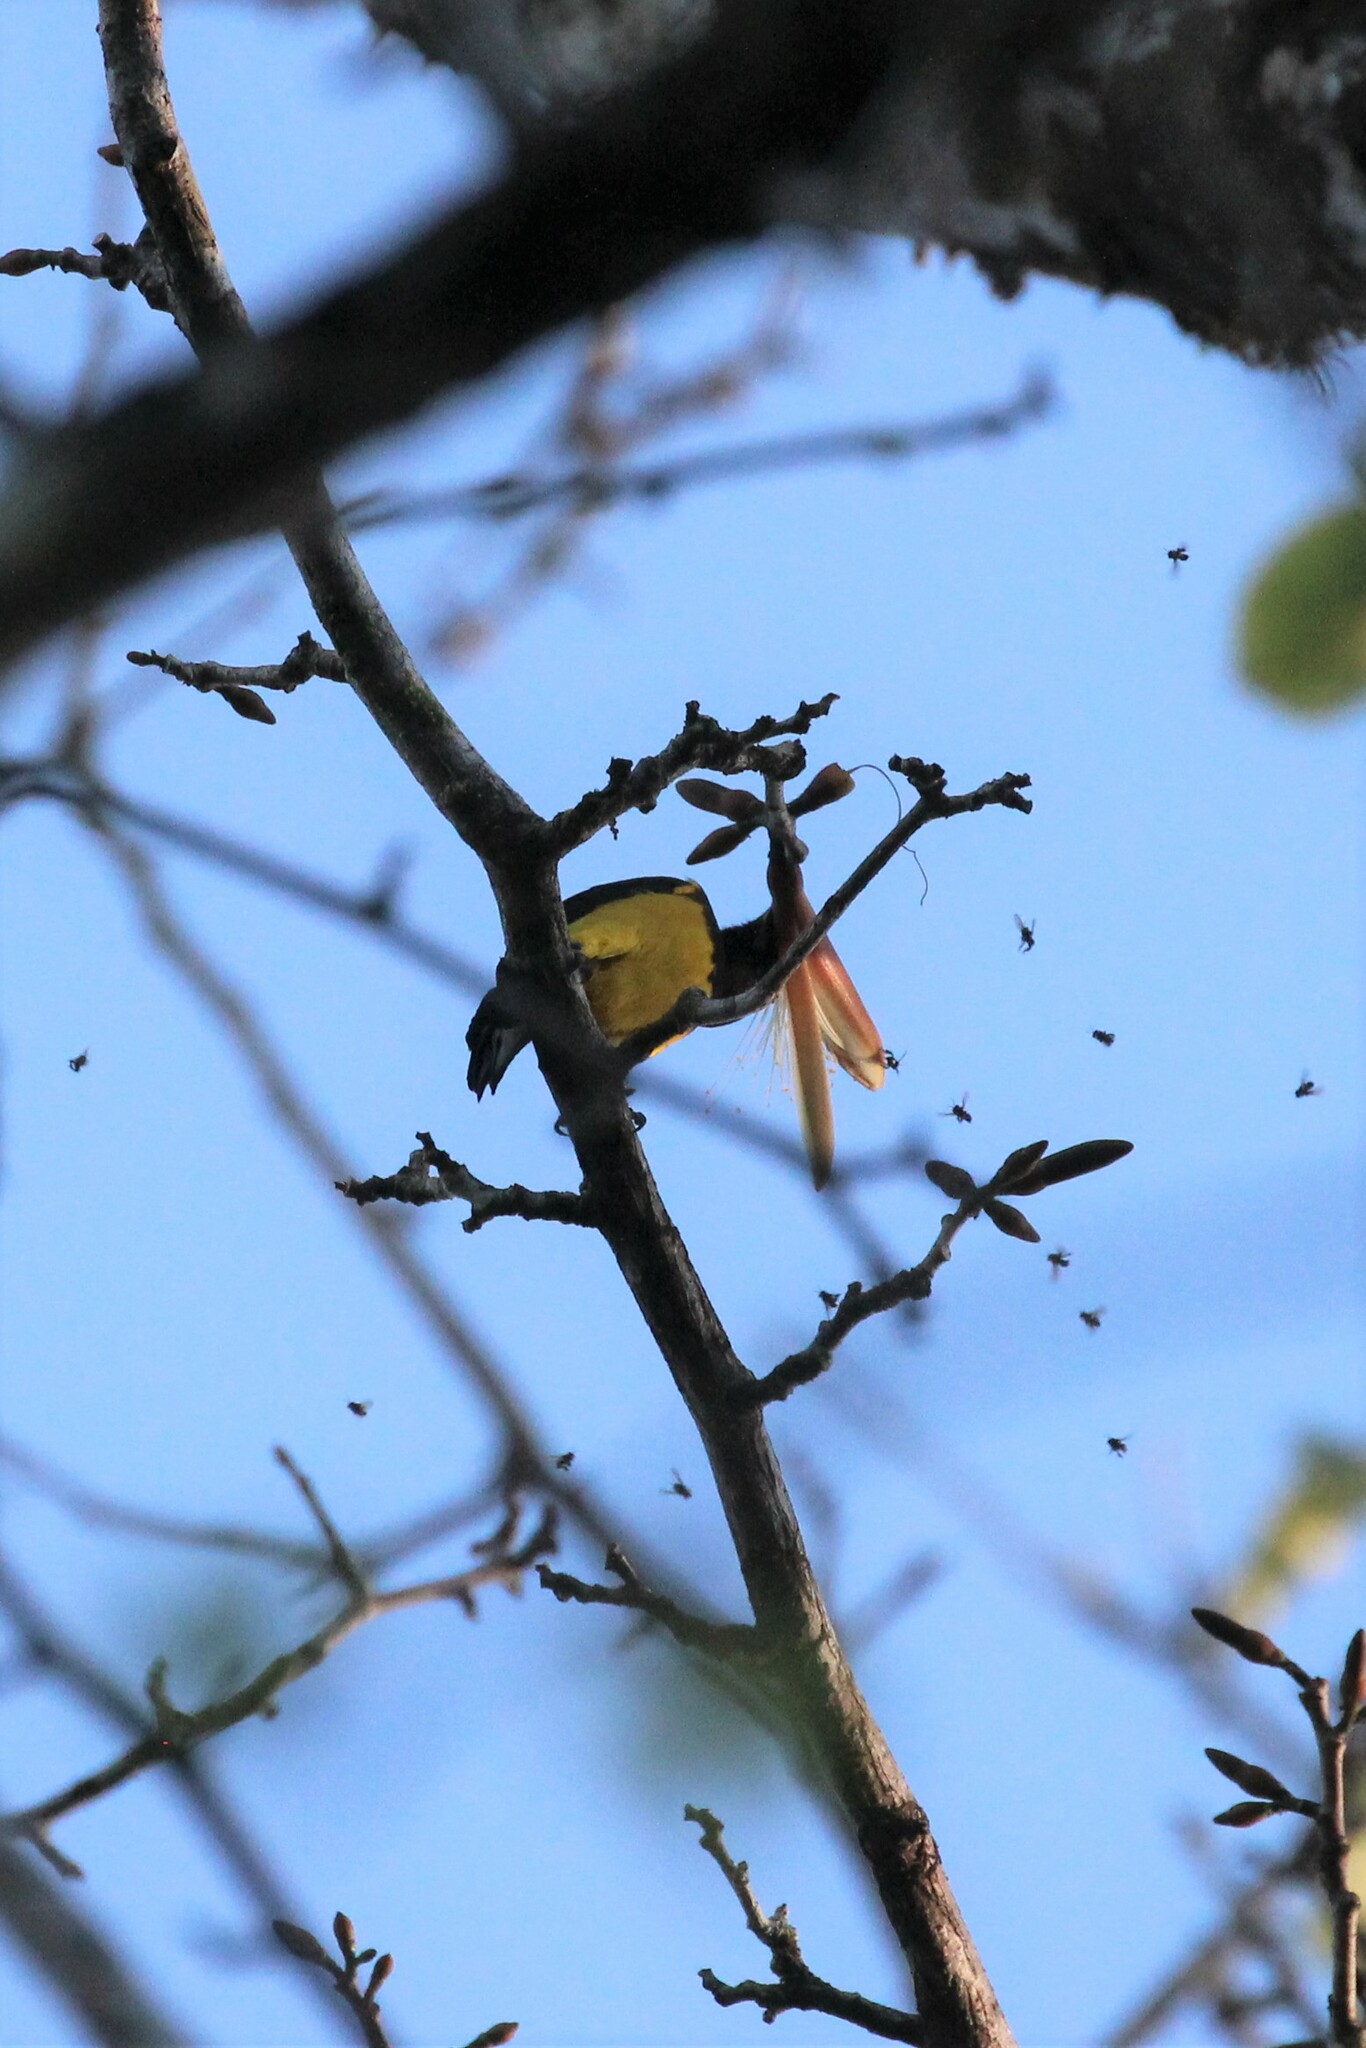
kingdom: Animalia
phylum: Chordata
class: Aves
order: Passeriformes
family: Icteridae
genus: Icterus
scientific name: Icterus prosthemelas
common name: Black-cowled oriole
